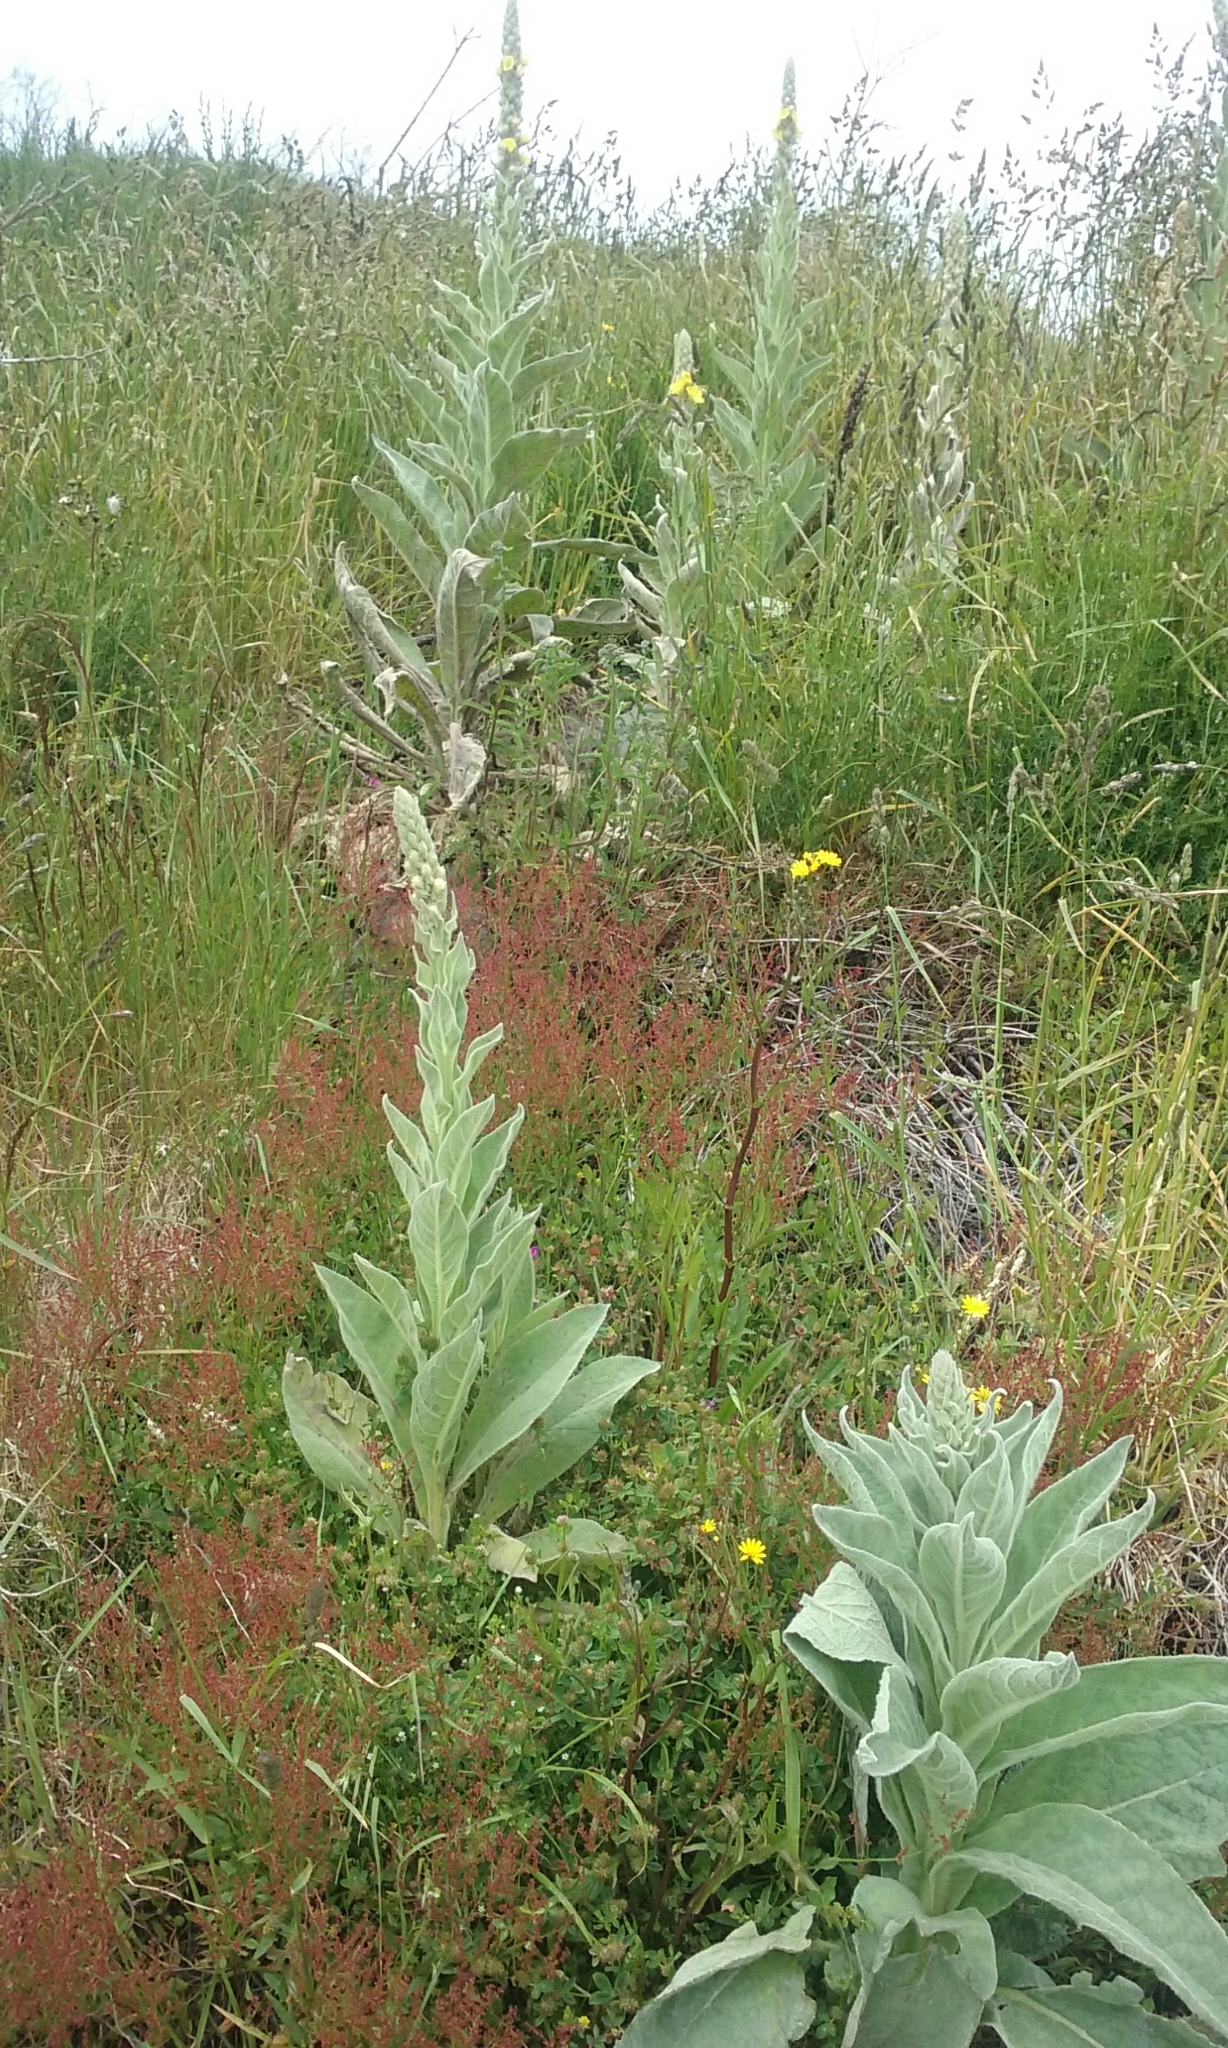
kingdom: Plantae
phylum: Tracheophyta
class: Magnoliopsida
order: Lamiales
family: Scrophulariaceae
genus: Verbascum
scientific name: Verbascum thapsus
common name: Common mullein
